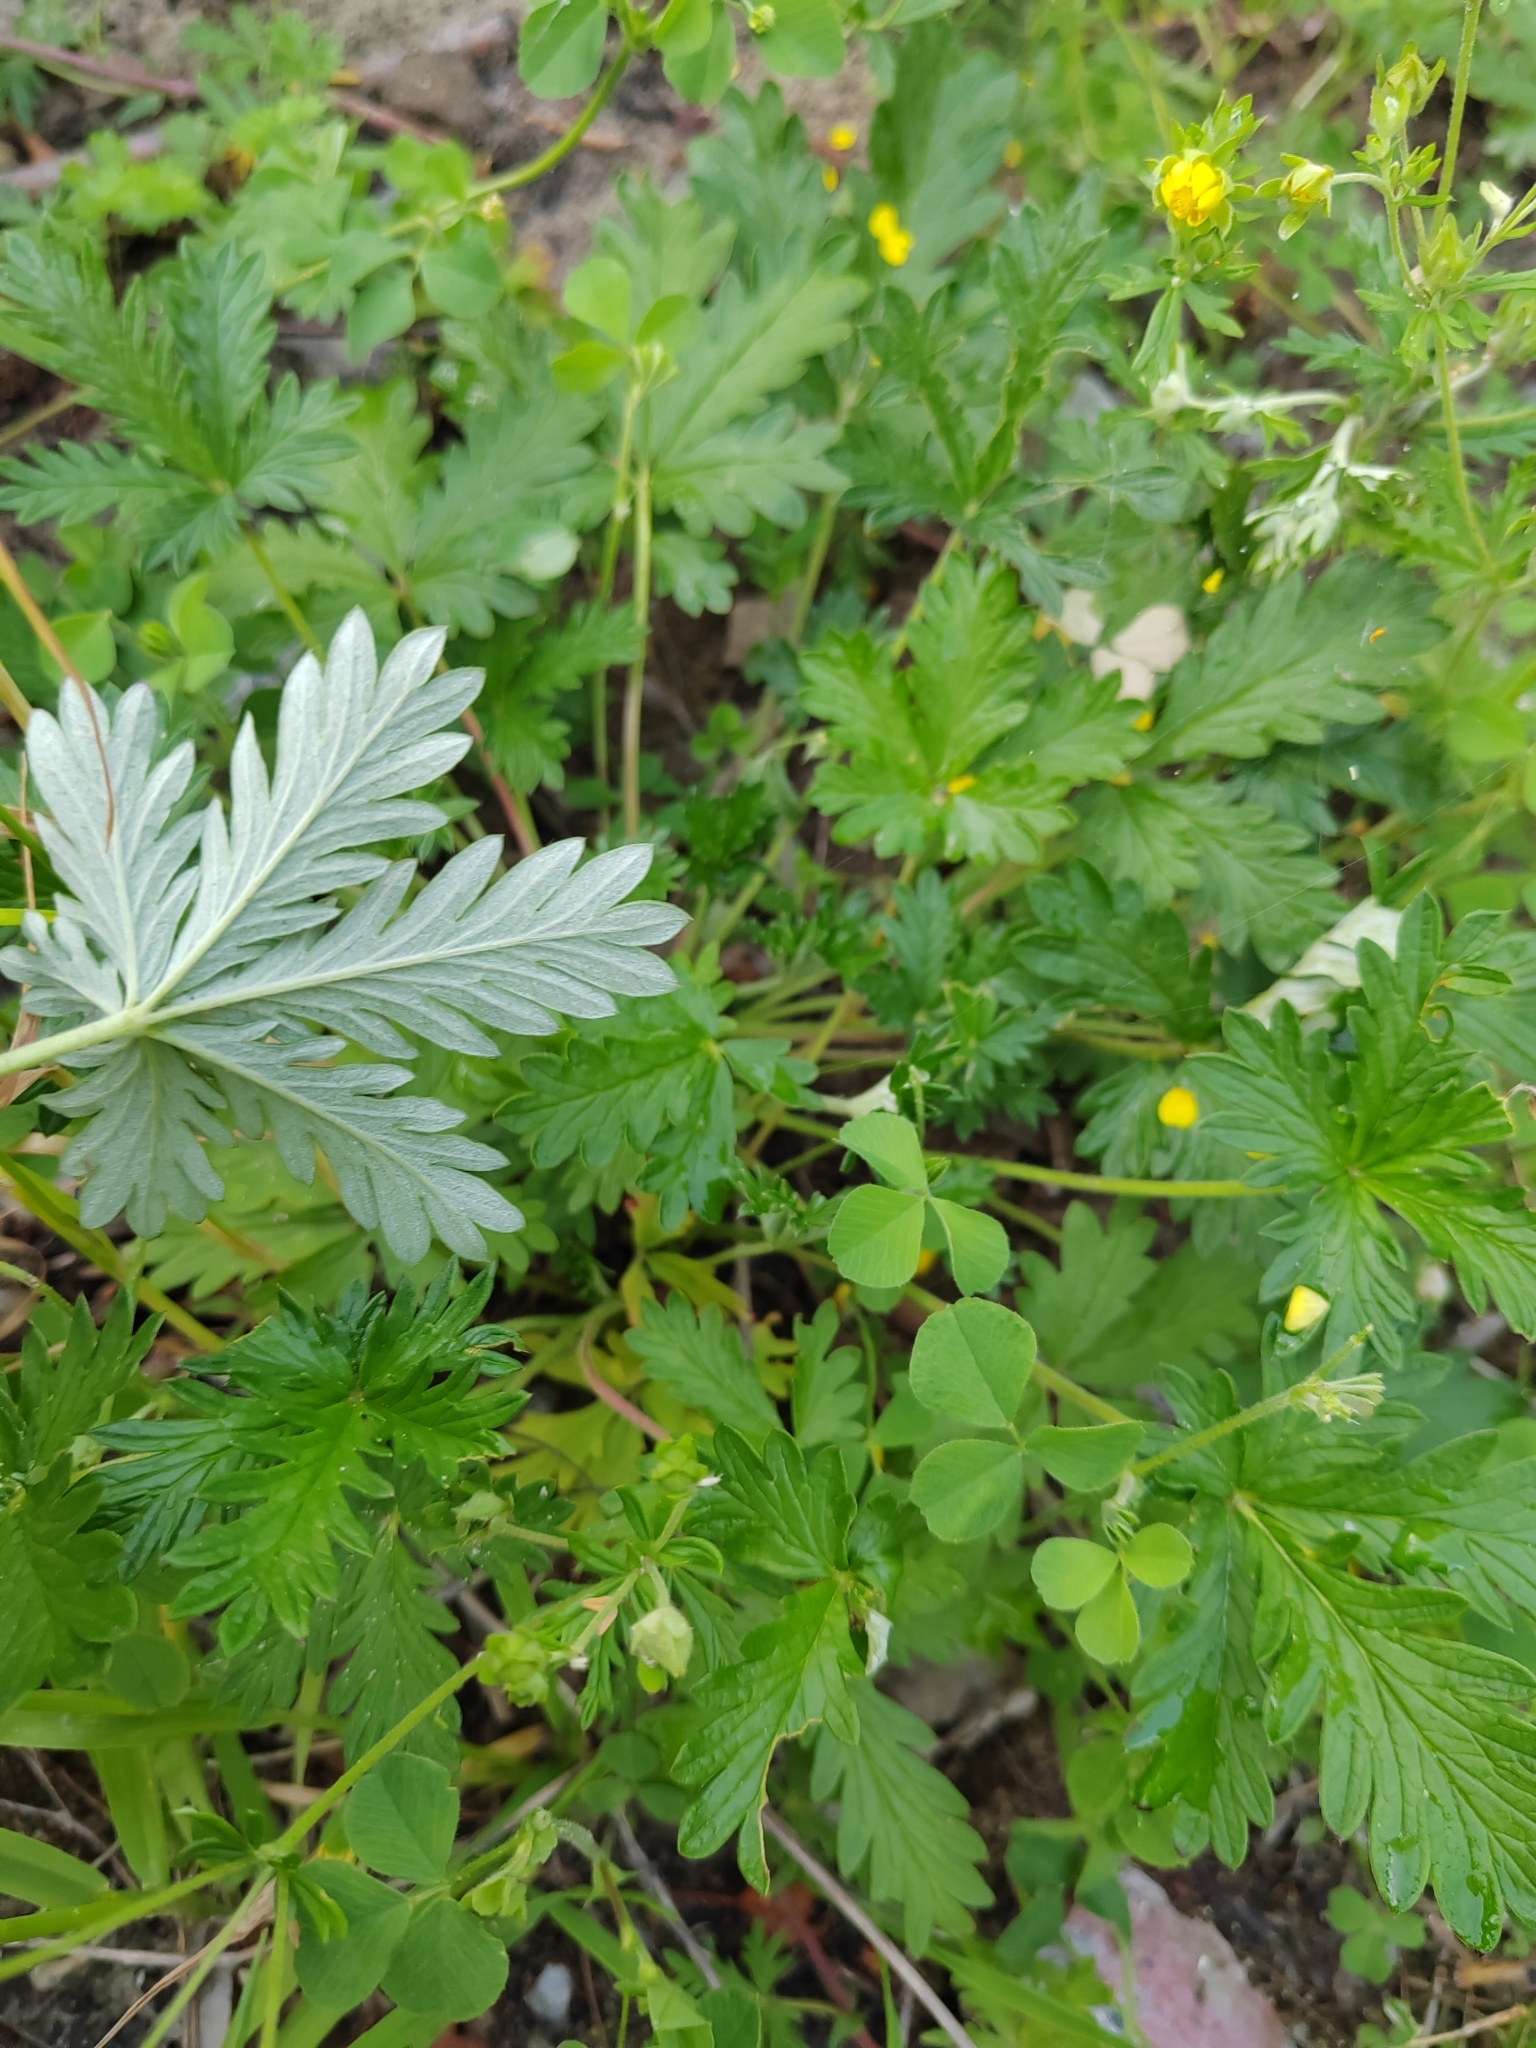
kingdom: Plantae
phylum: Tracheophyta
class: Magnoliopsida
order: Rosales
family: Rosaceae
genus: Potentilla
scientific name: Potentilla argentea
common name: Hoary cinquefoil
